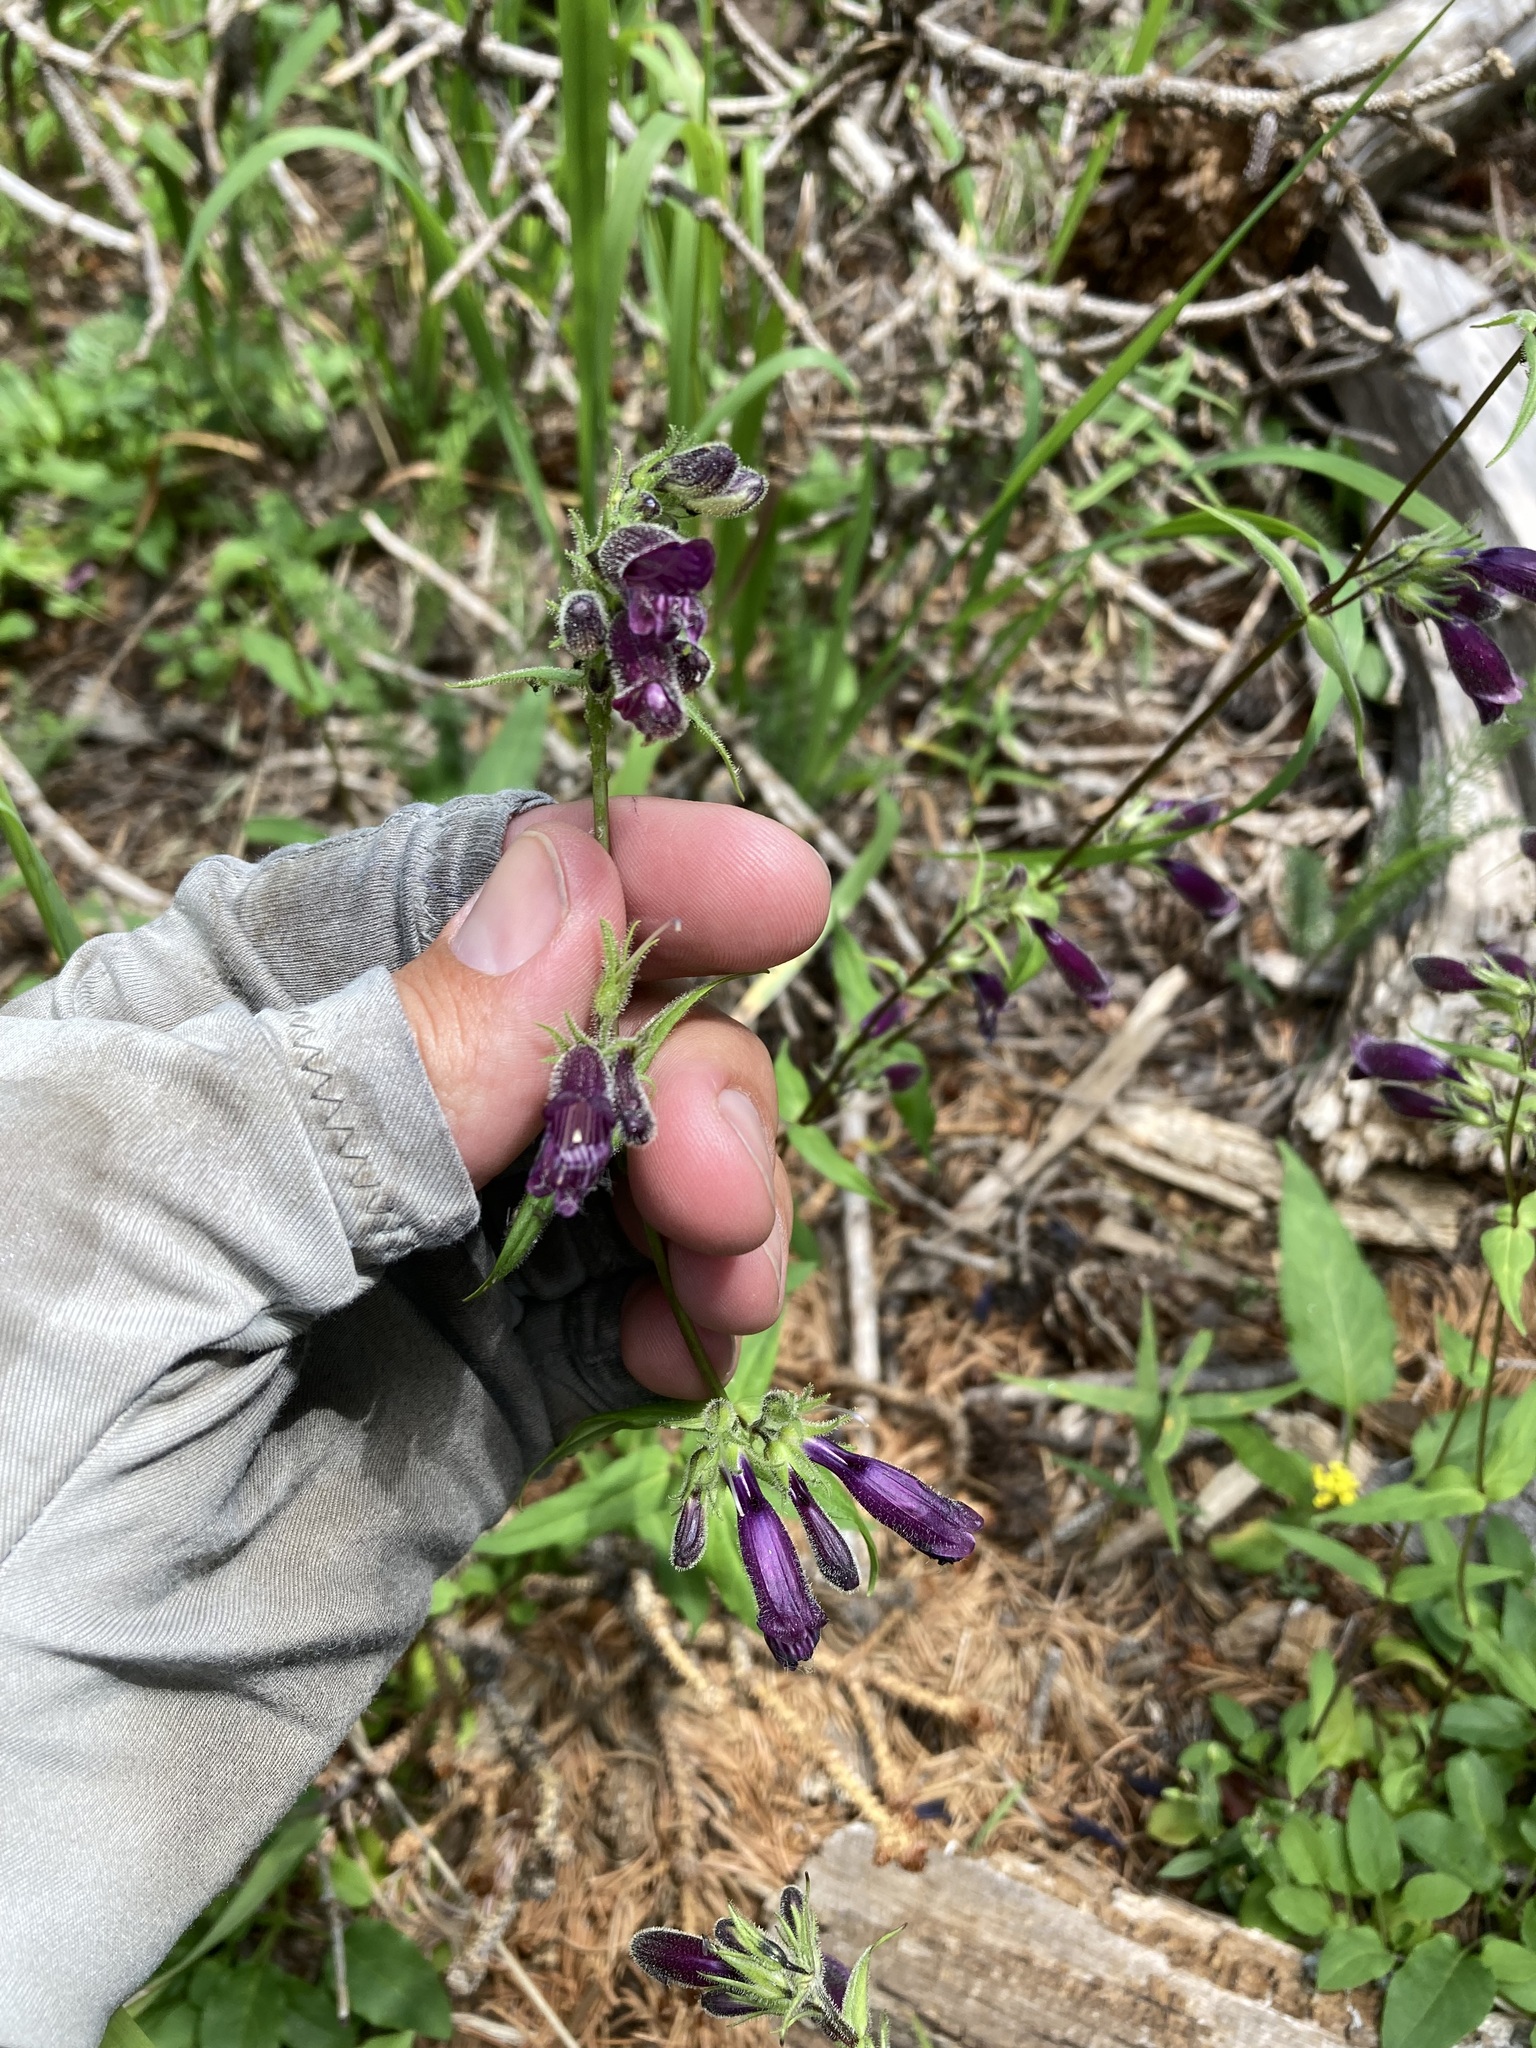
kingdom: Plantae
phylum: Tracheophyta
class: Magnoliopsida
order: Lamiales
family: Plantaginaceae
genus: Penstemon
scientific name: Penstemon whippleanus
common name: Whipple's penstemon
